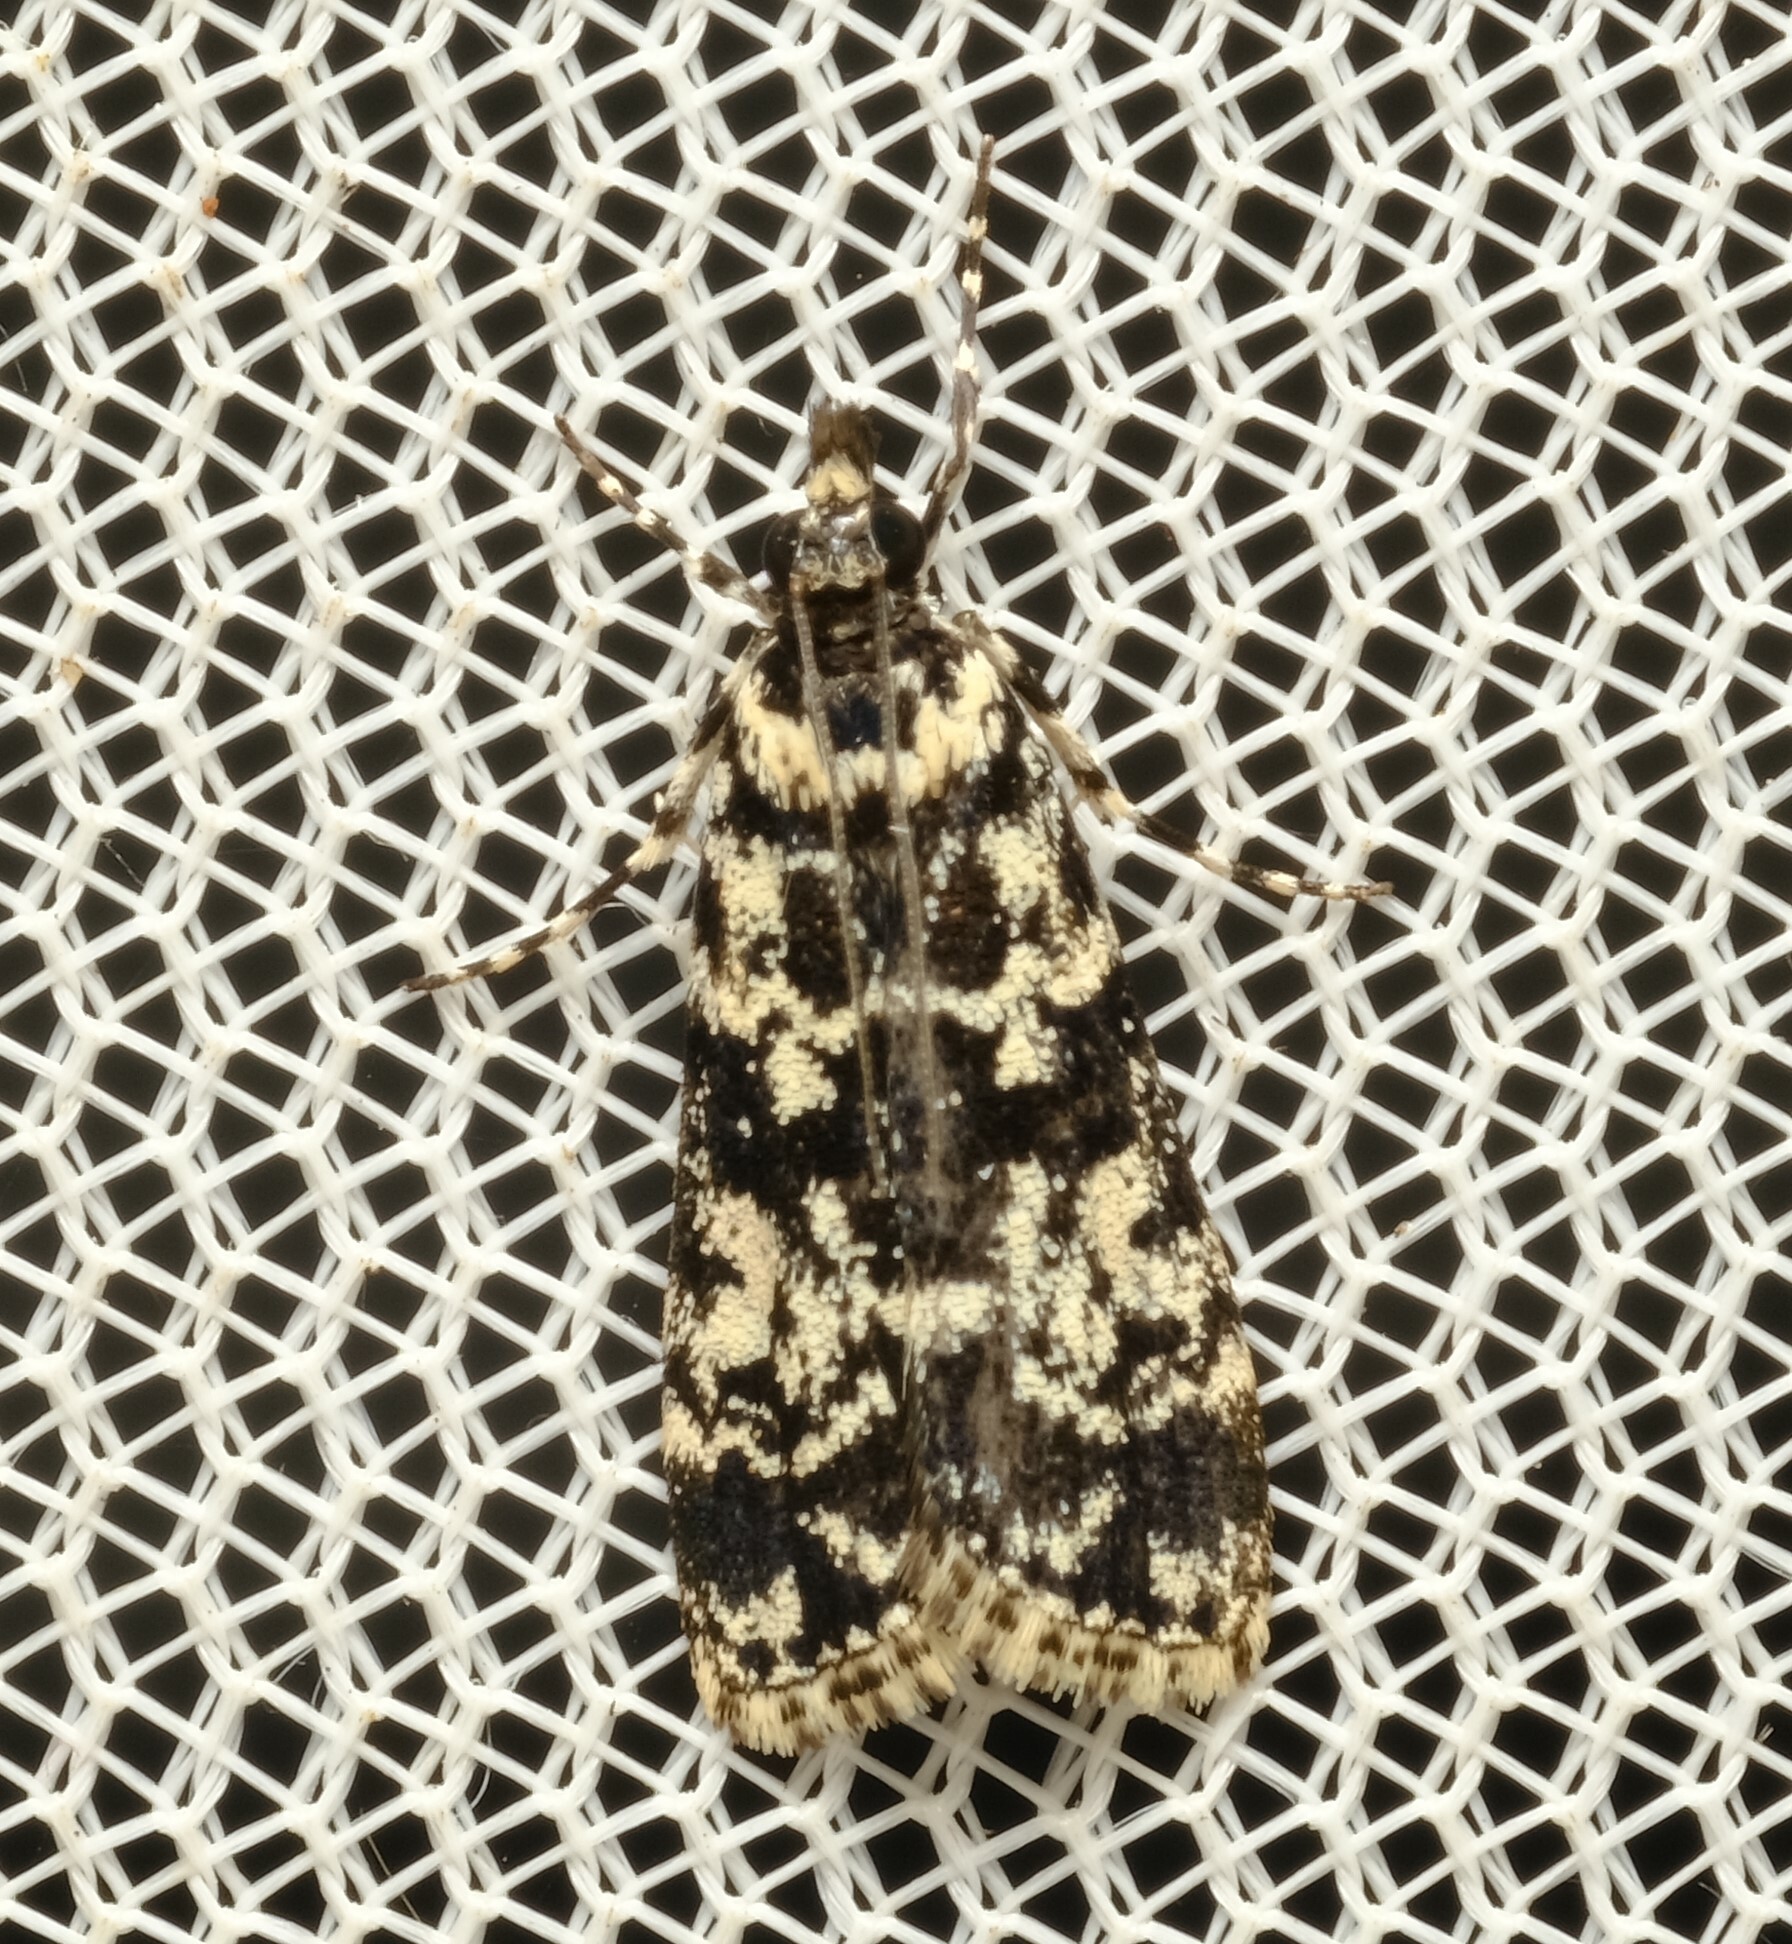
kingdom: Animalia
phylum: Arthropoda
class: Insecta
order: Lepidoptera
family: Crambidae
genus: Scoparia
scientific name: Scoparia exhibitalis
